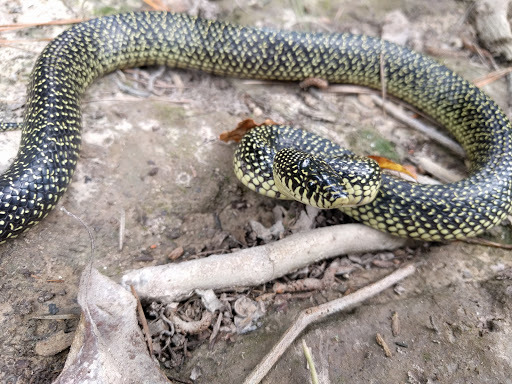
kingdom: Animalia
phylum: Chordata
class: Squamata
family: Colubridae
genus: Lampropeltis
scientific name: Lampropeltis holbrooki
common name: Speckled kingsnake
